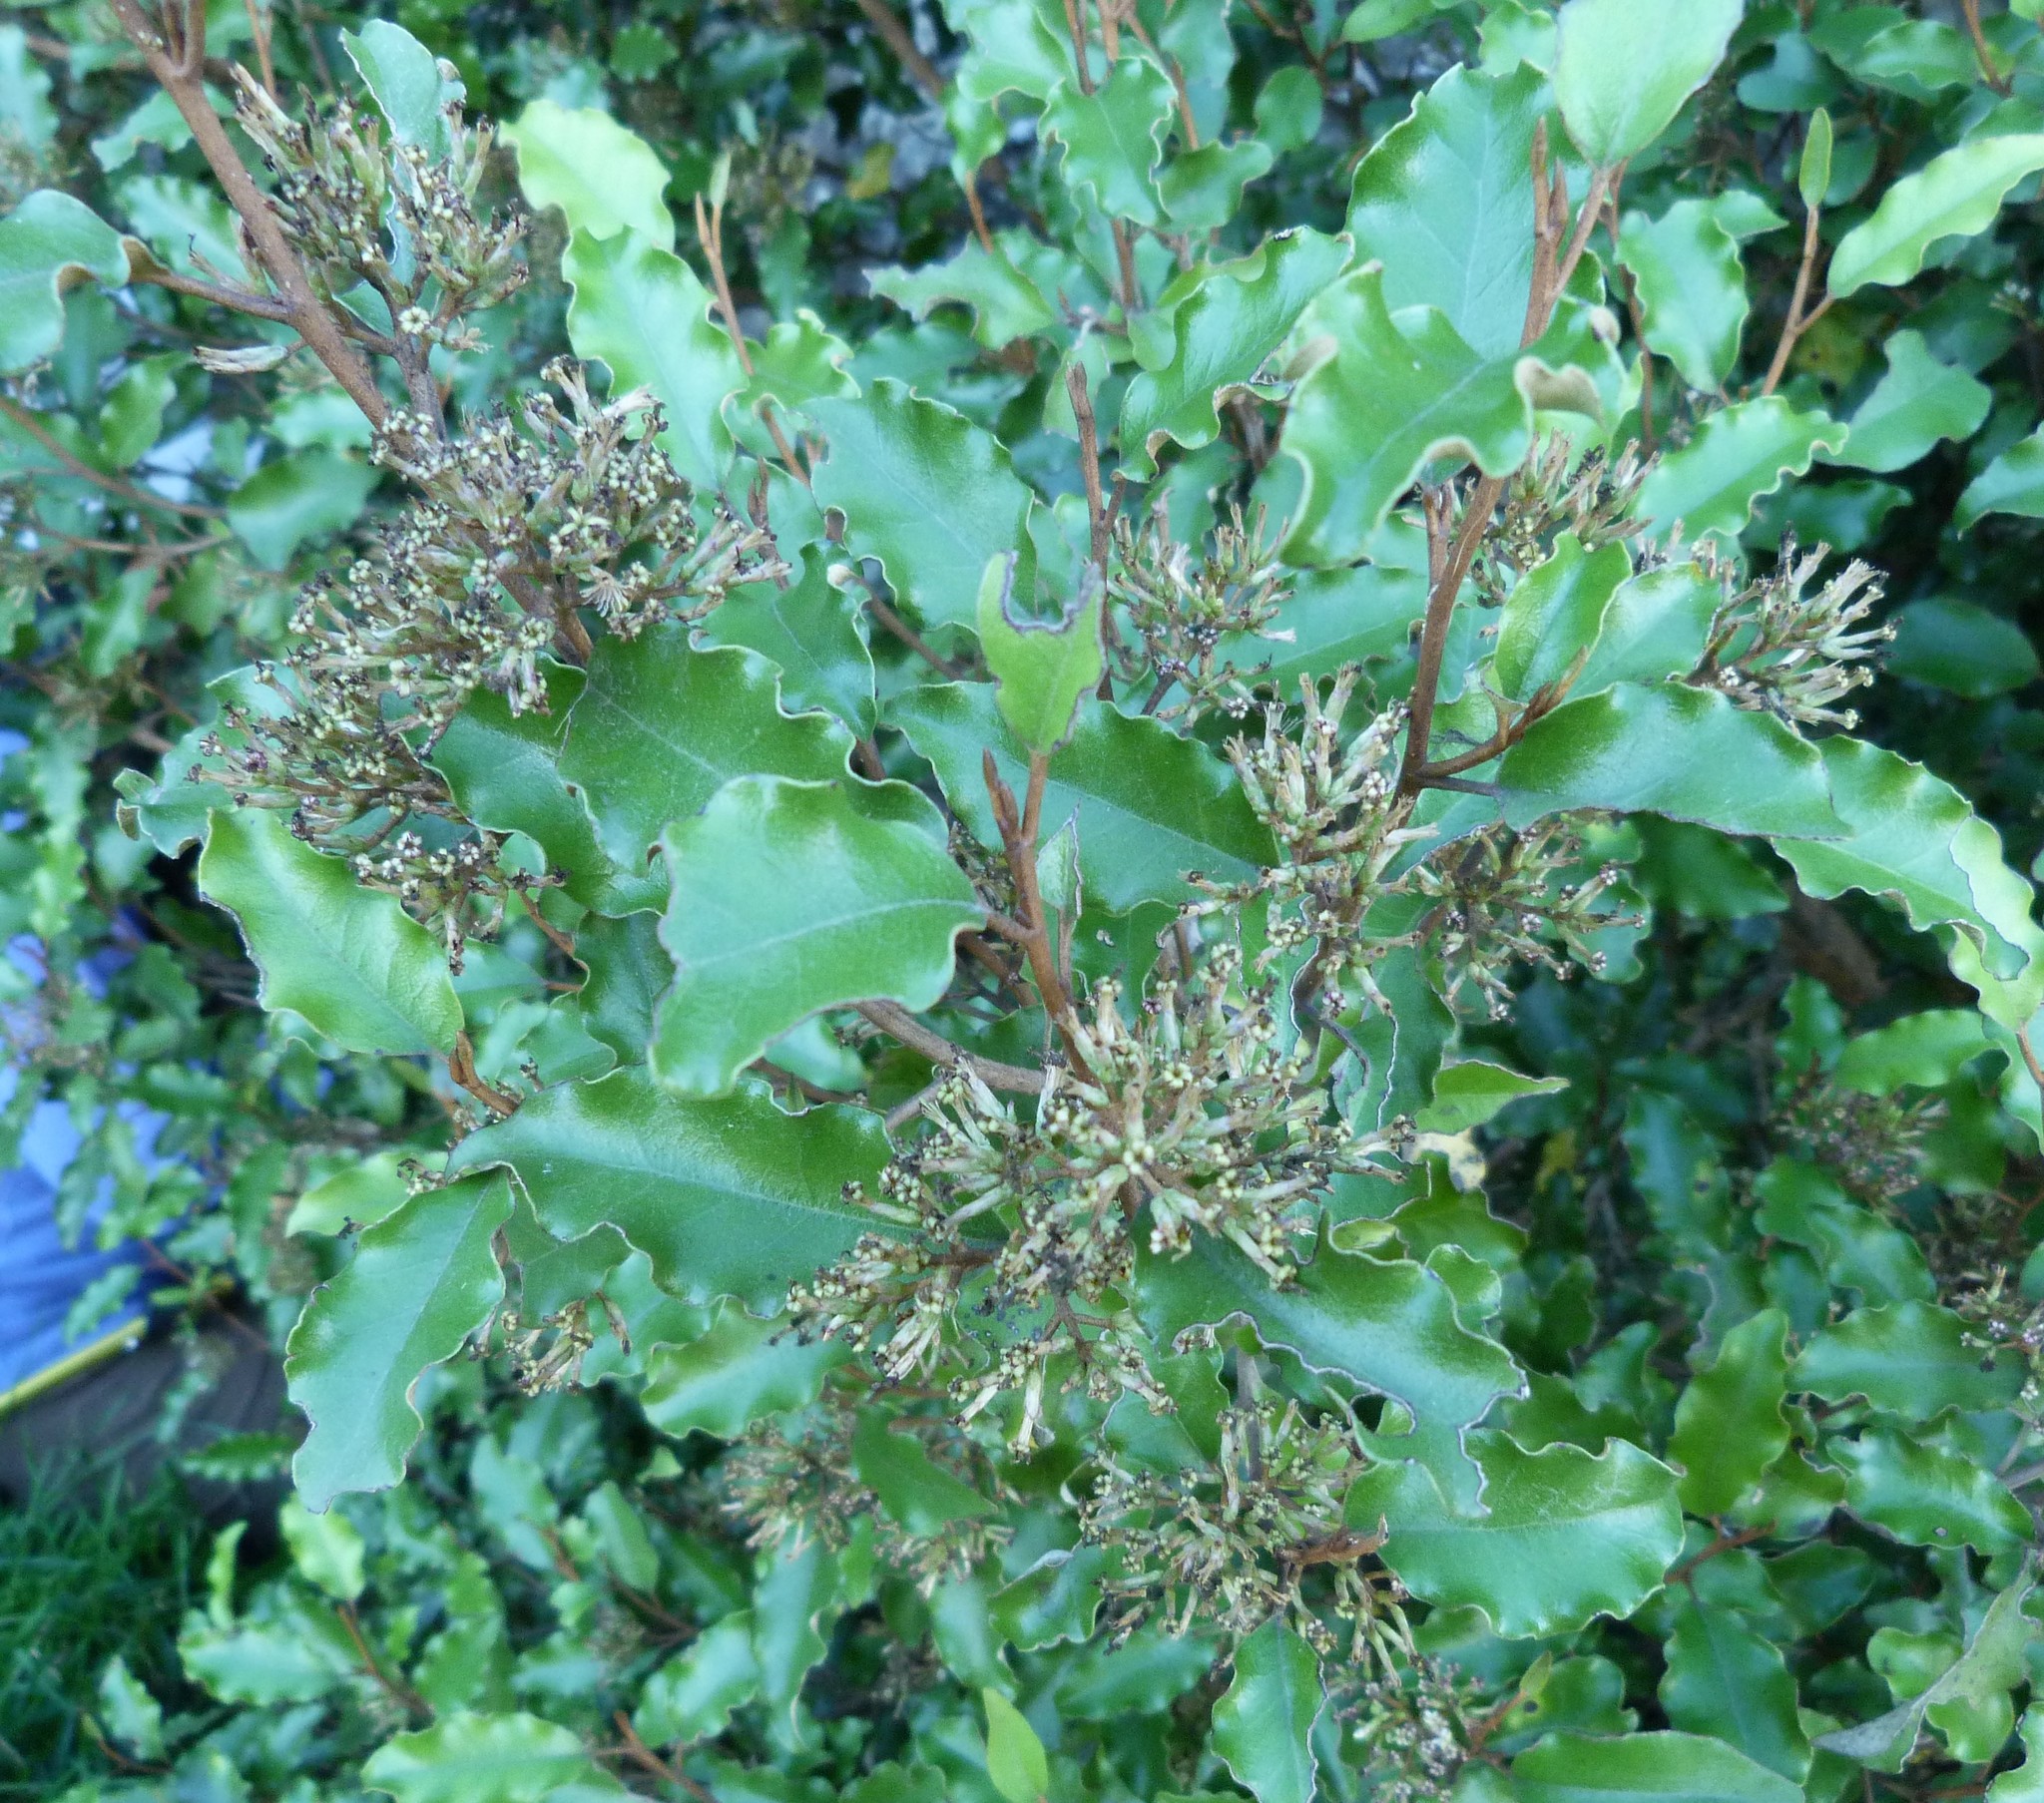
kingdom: Plantae
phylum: Tracheophyta
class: Magnoliopsida
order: Asterales
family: Asteraceae
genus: Olearia
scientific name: Olearia paniculata
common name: Akiraho
